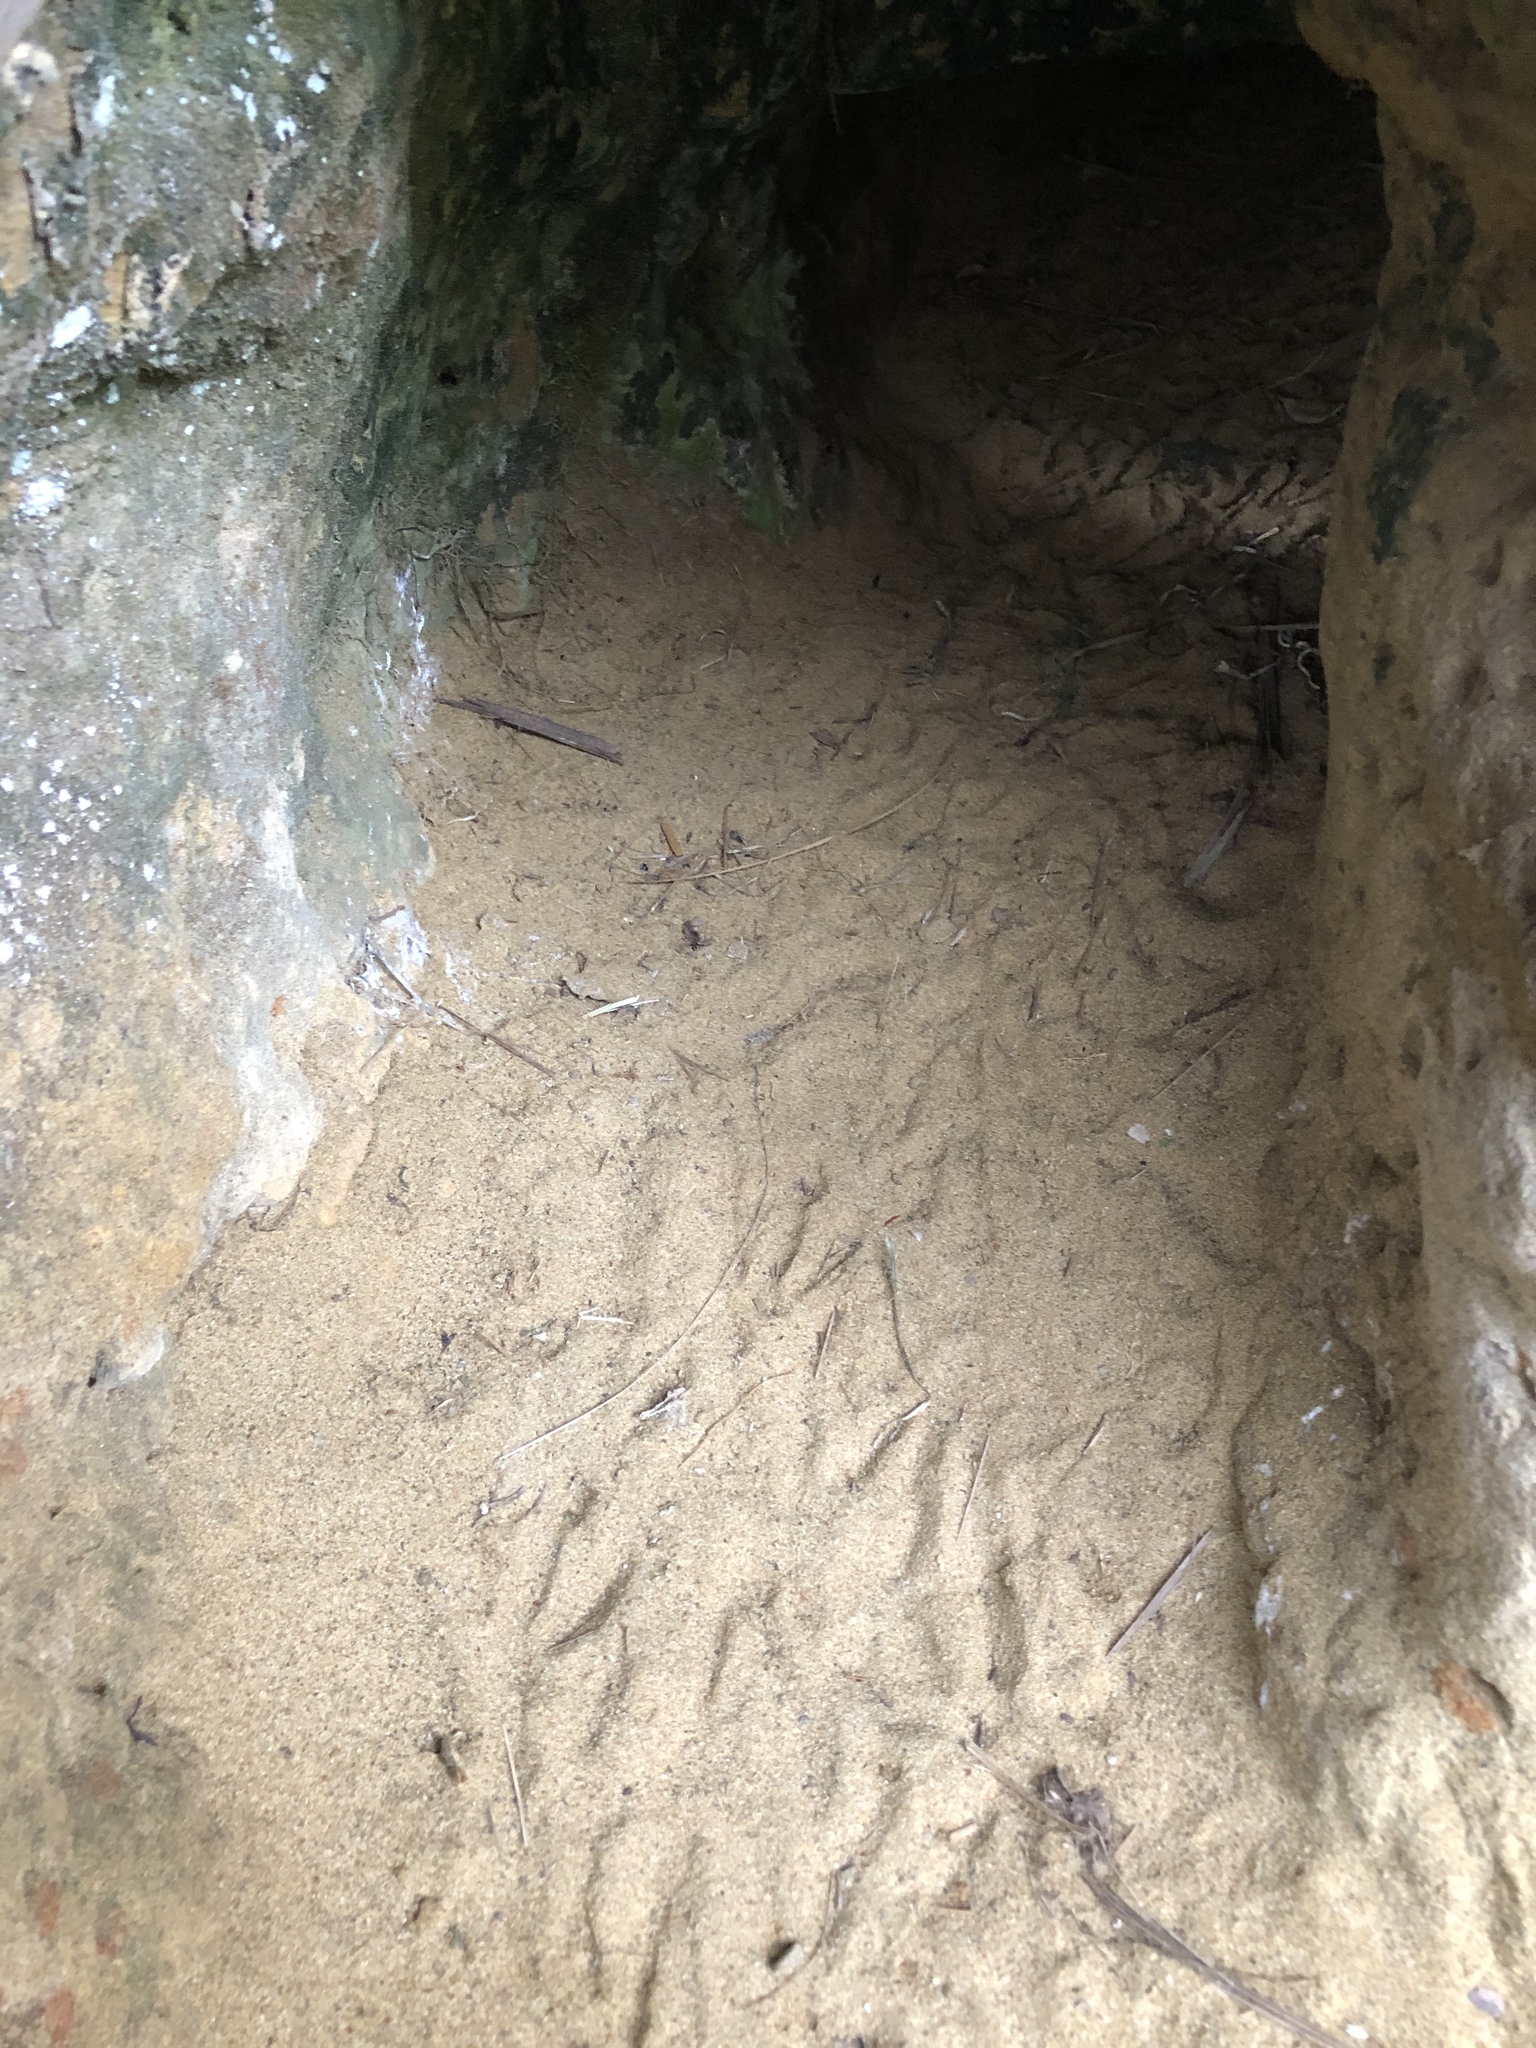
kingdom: Animalia
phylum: Chordata
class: Aves
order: Sphenisciformes
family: Spheniscidae
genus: Eudyptula
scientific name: Eudyptula minor
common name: Little penguin
